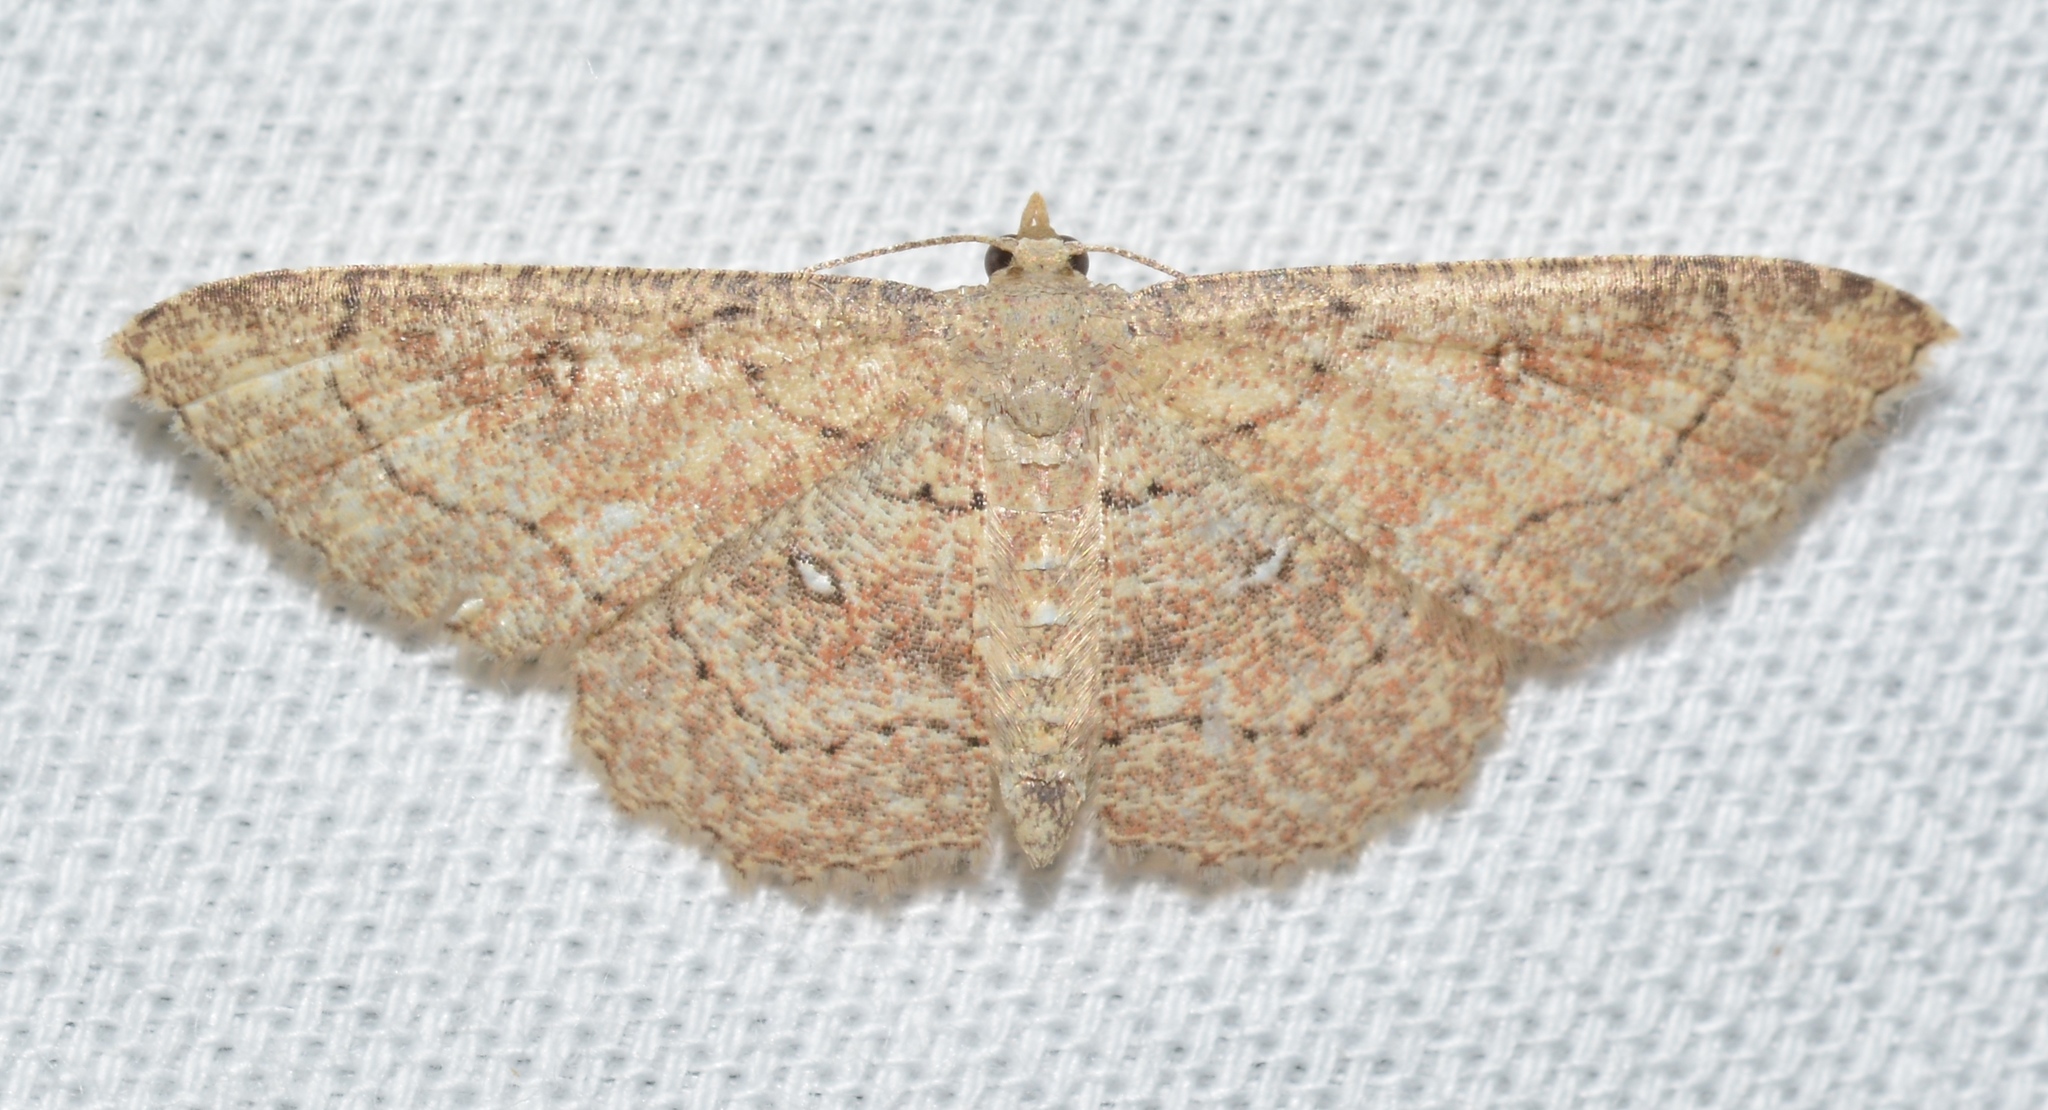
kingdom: Animalia
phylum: Arthropoda
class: Insecta
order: Lepidoptera
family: Geometridae
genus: Cyclophora
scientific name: Cyclophora nanaria
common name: Cankerworm
